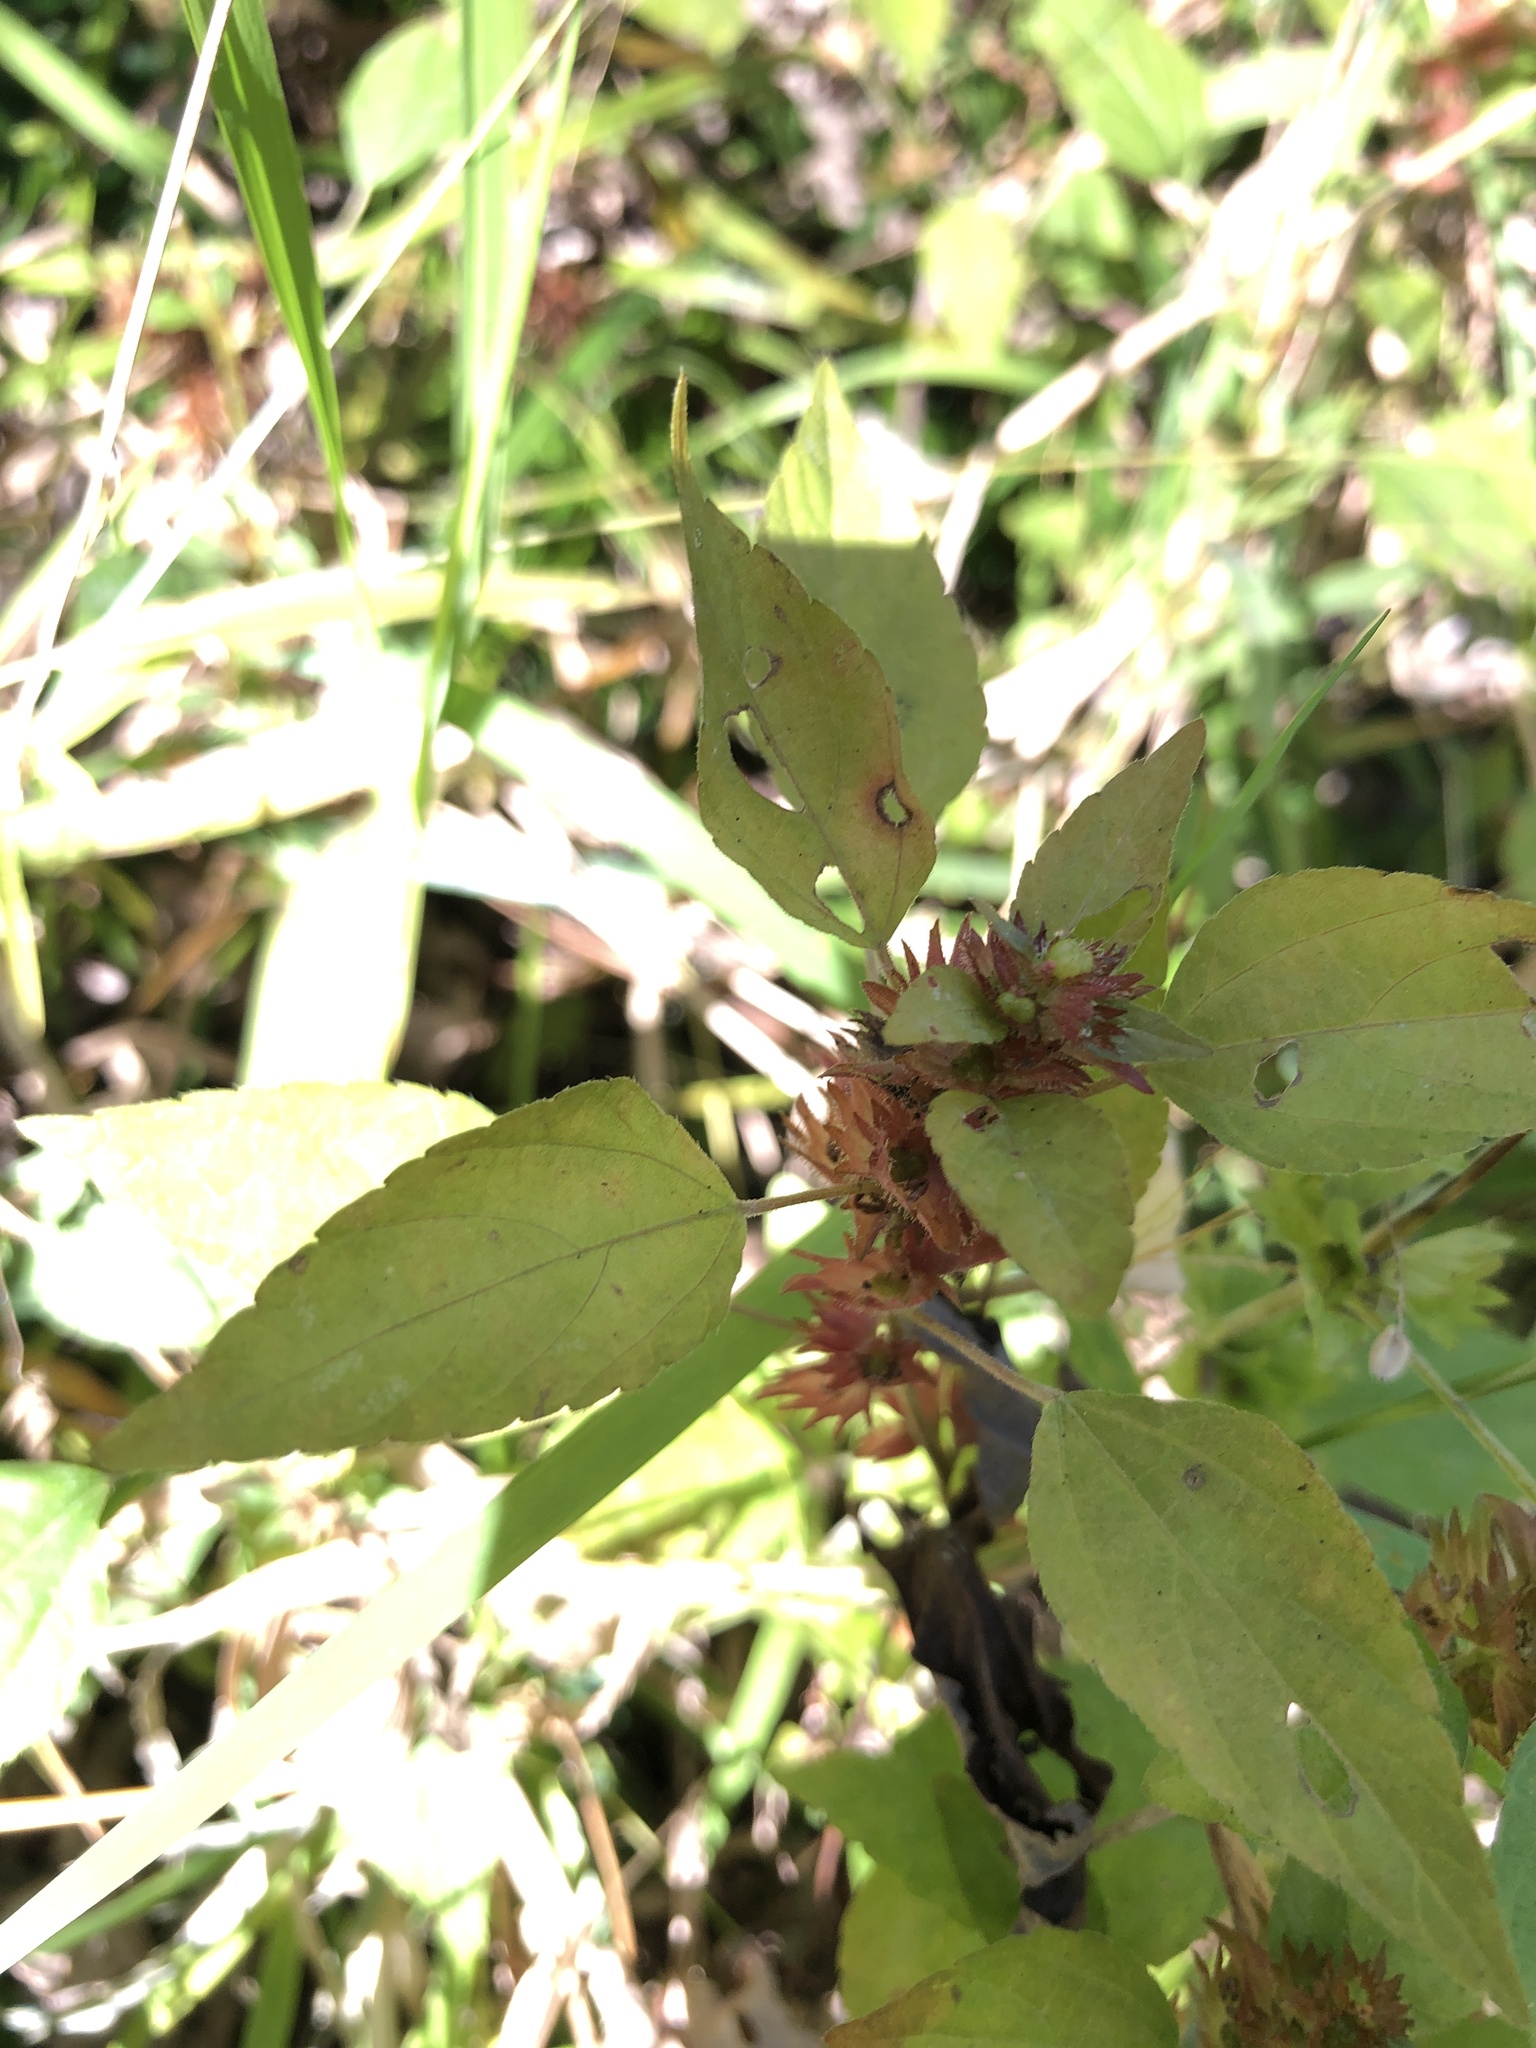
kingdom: Plantae
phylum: Tracheophyta
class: Magnoliopsida
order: Malpighiales
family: Euphorbiaceae
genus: Acalypha
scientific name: Acalypha rhomboidea
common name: Rhombic copperleaf
